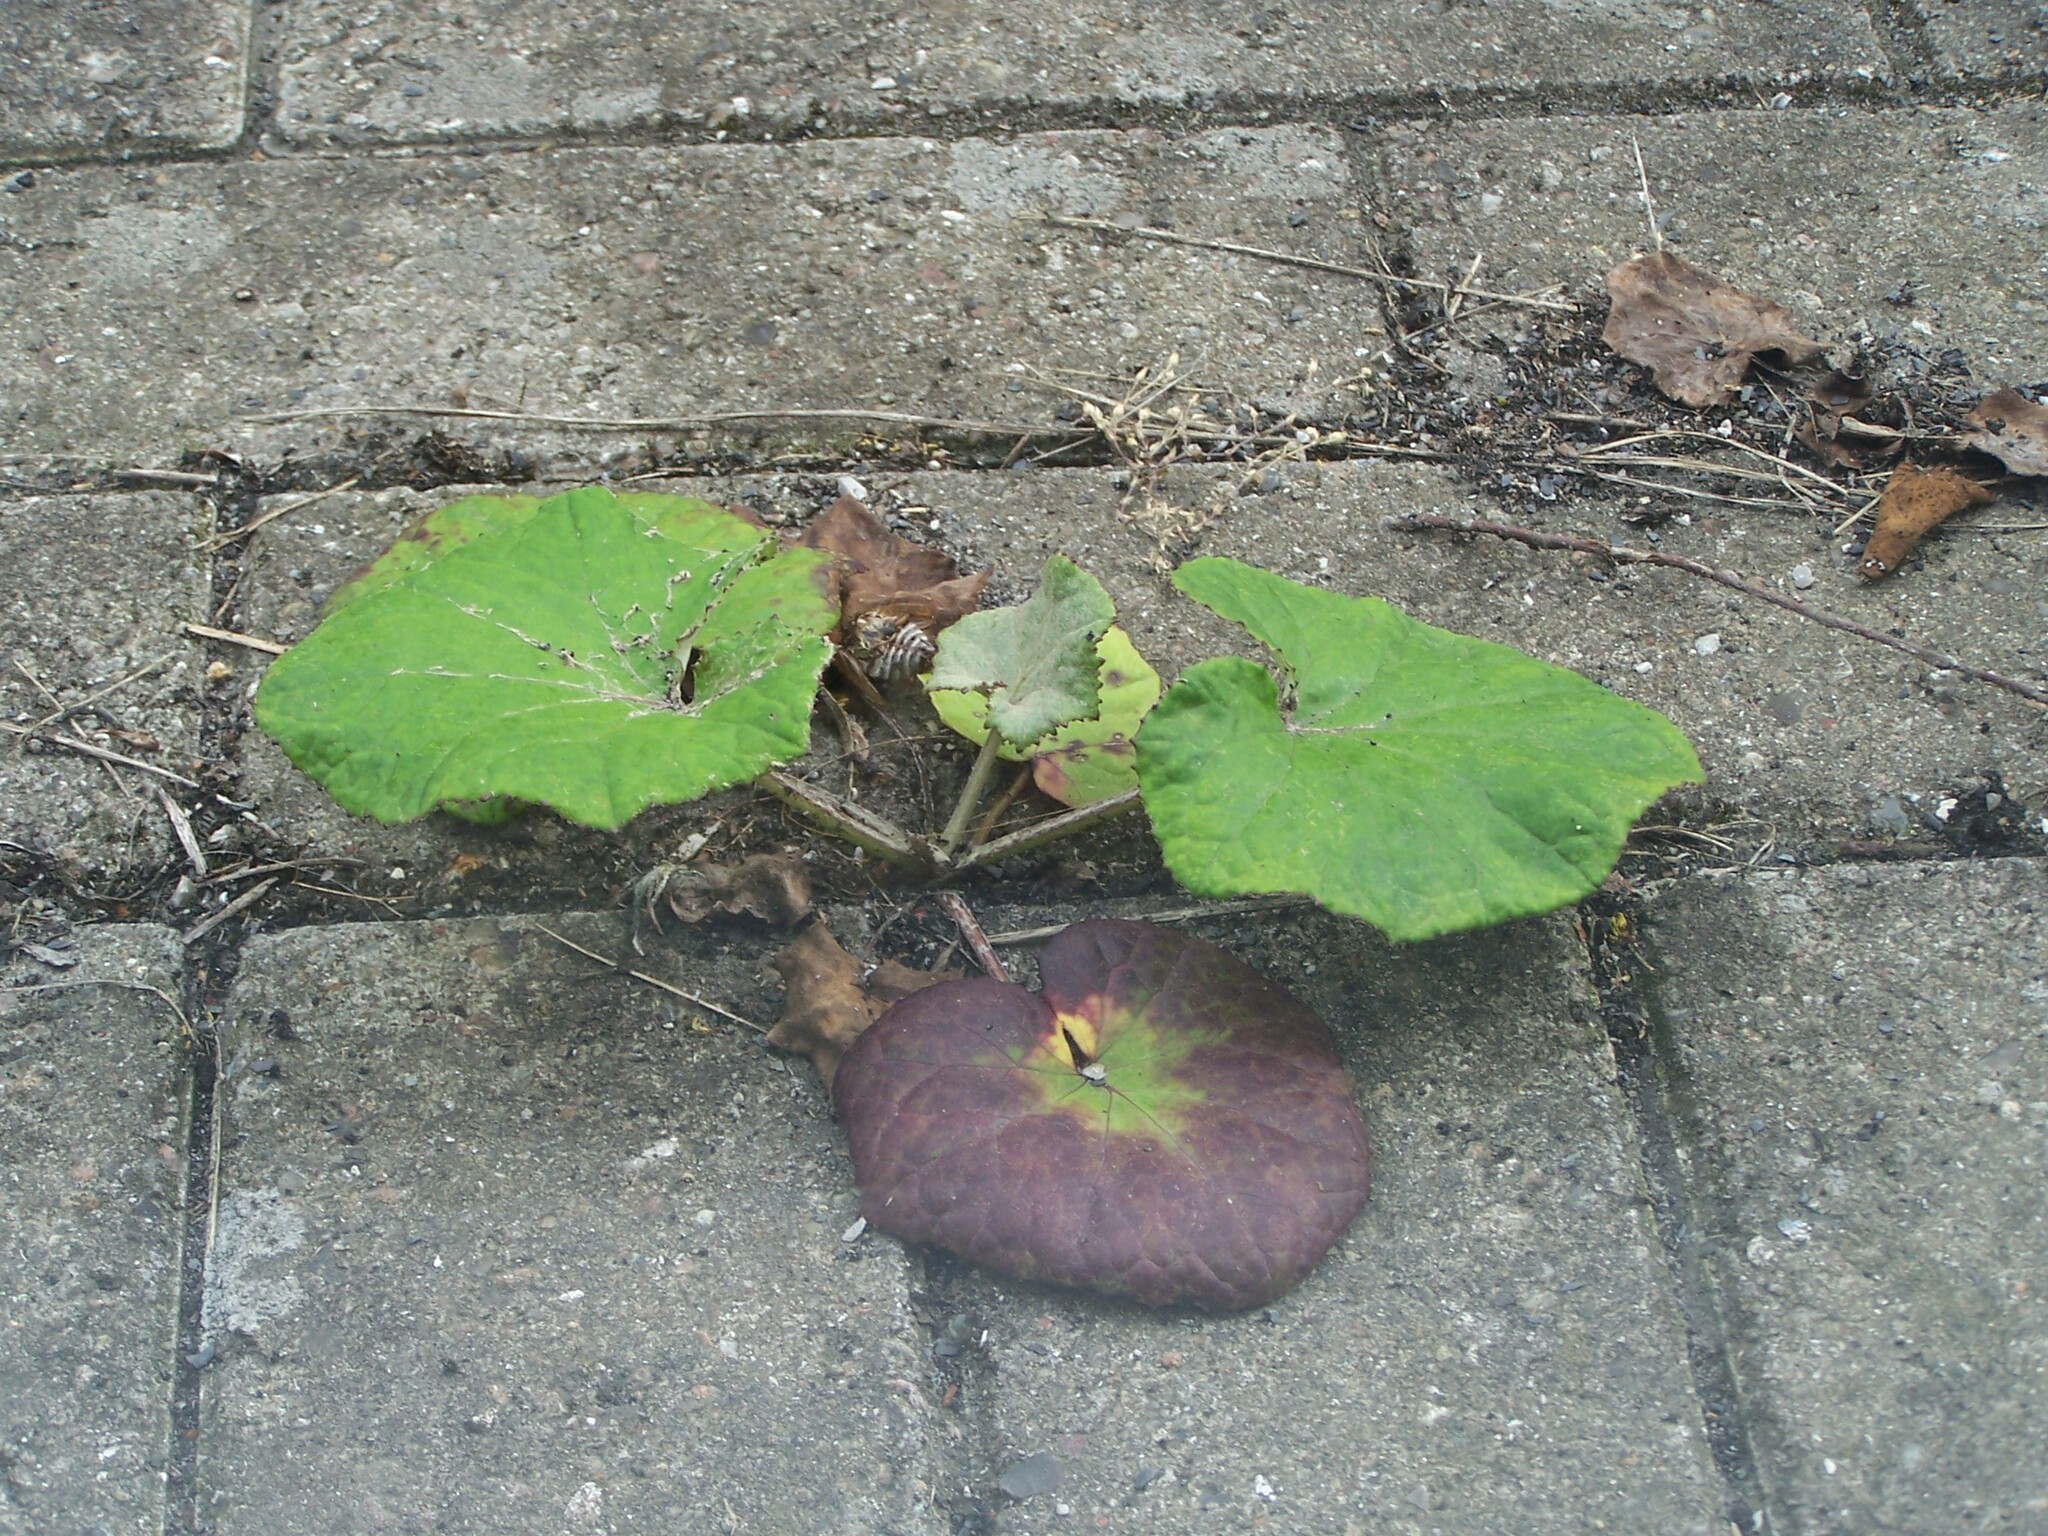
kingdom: Plantae
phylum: Tracheophyta
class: Magnoliopsida
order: Asterales
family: Asteraceae
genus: Tussilago
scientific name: Tussilago farfara
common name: Coltsfoot
